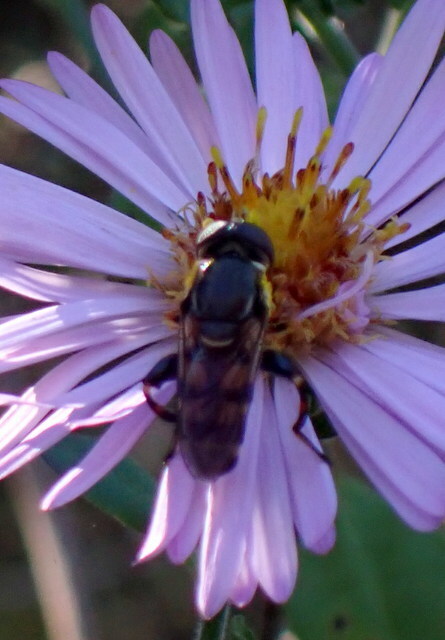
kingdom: Animalia
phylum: Arthropoda
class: Insecta
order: Diptera
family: Syrphidae
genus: Tropidia
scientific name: Tropidia albistylum
